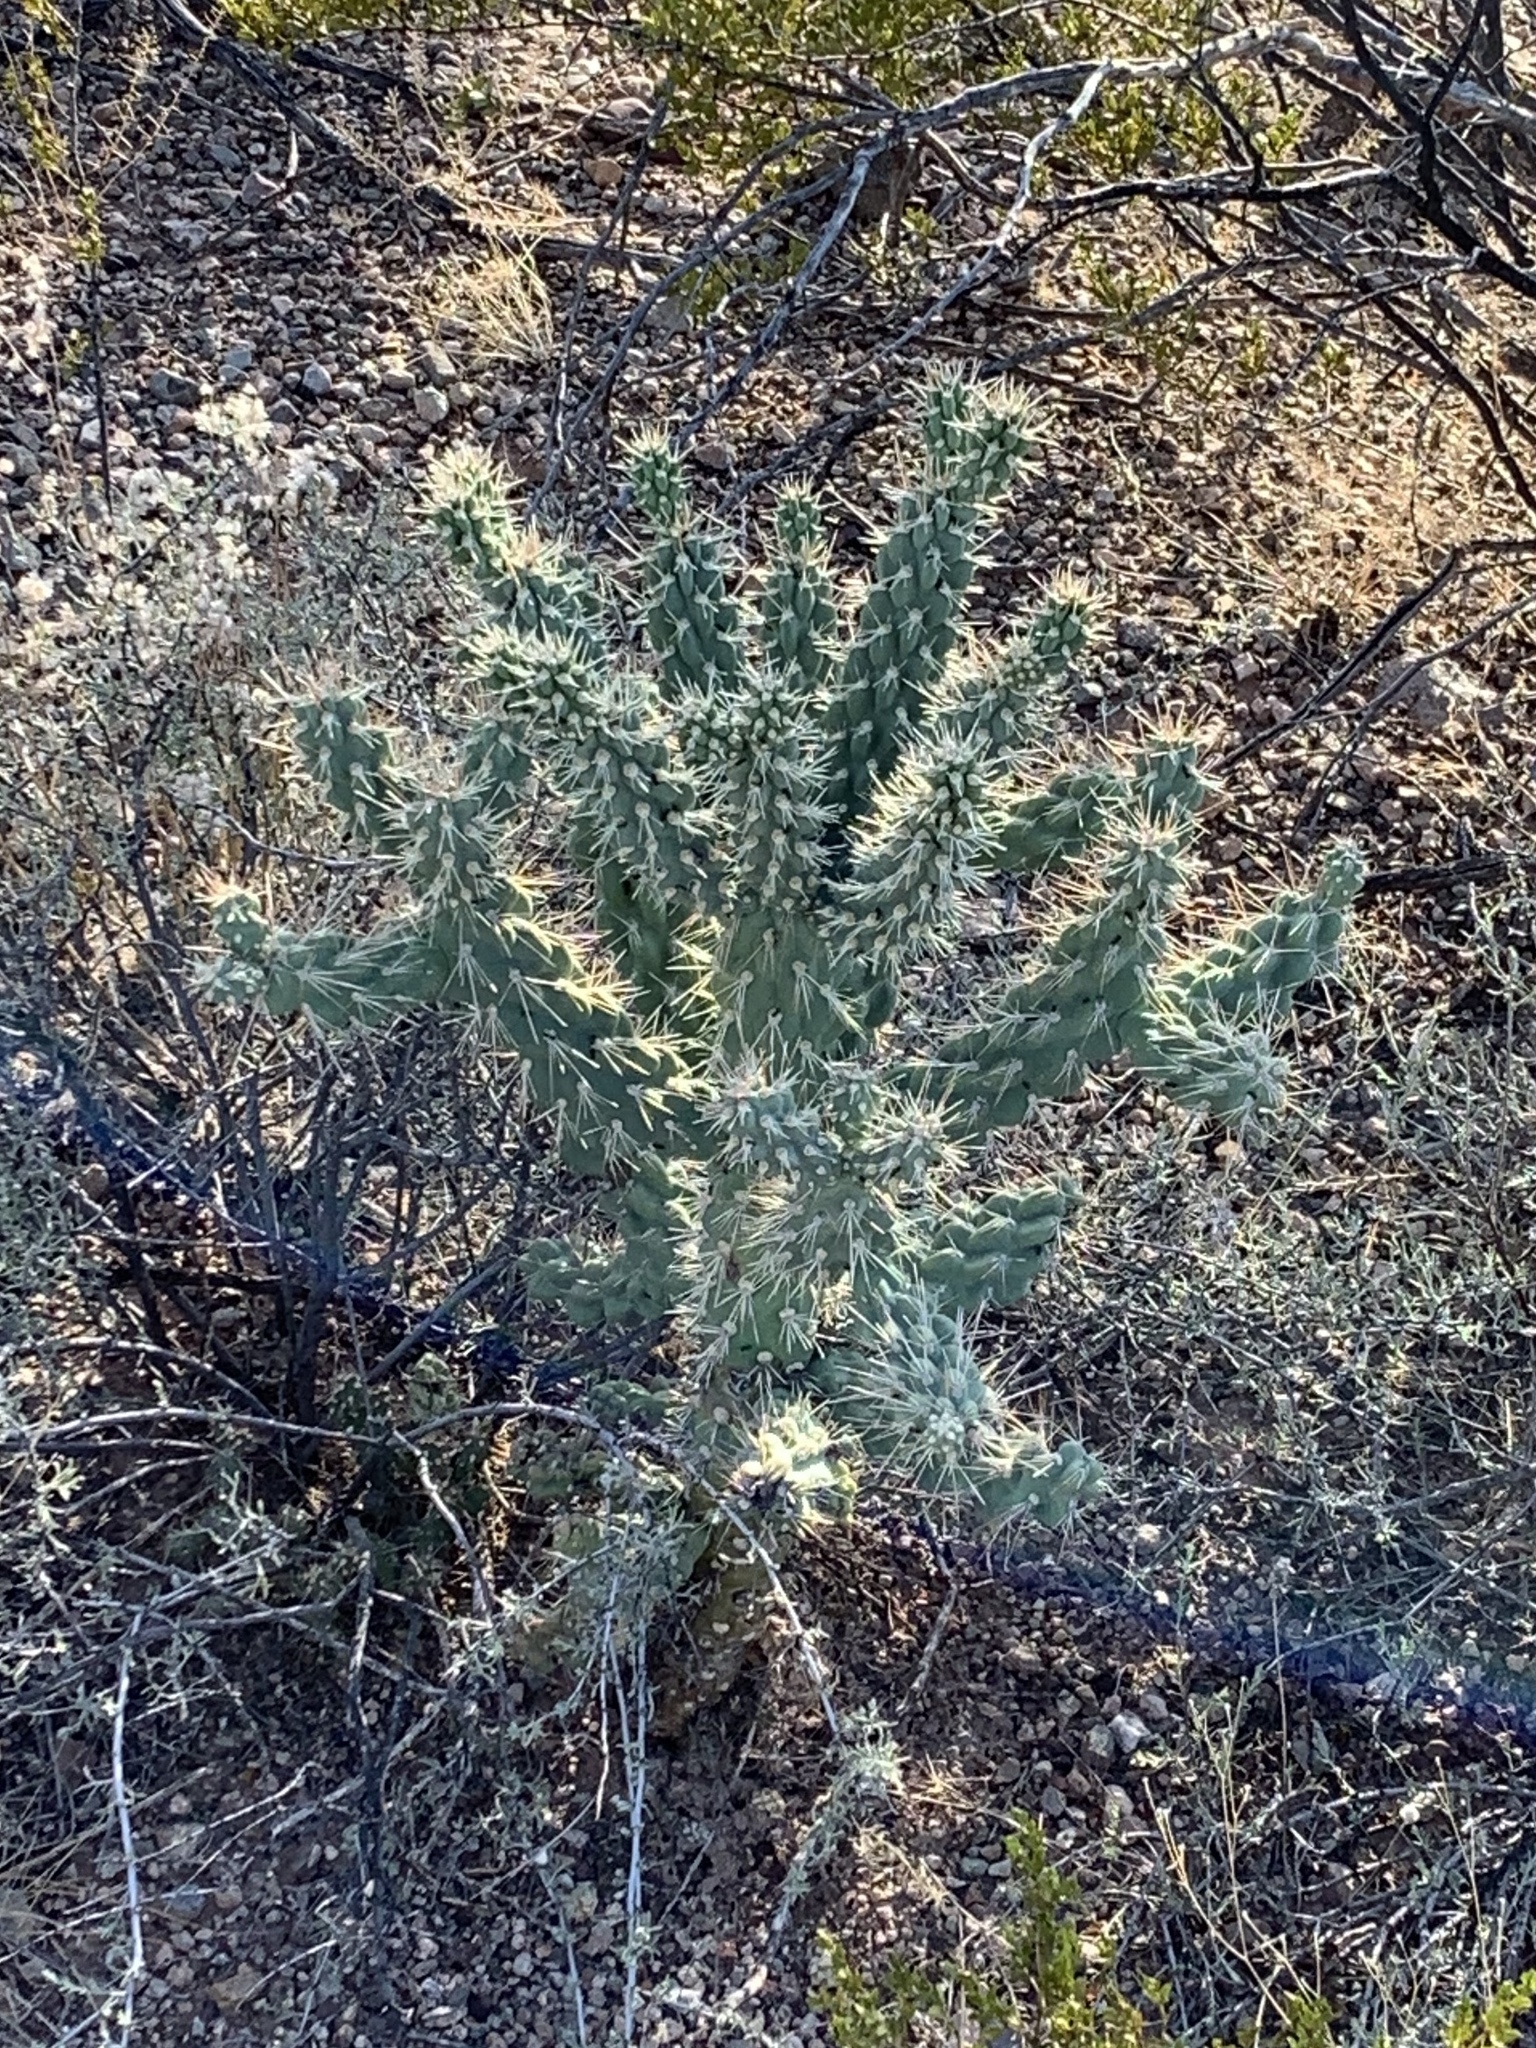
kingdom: Plantae
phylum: Tracheophyta
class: Magnoliopsida
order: Caryophyllales
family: Cactaceae
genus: Cylindropuntia
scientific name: Cylindropuntia fulgida
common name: Jumping cholla
